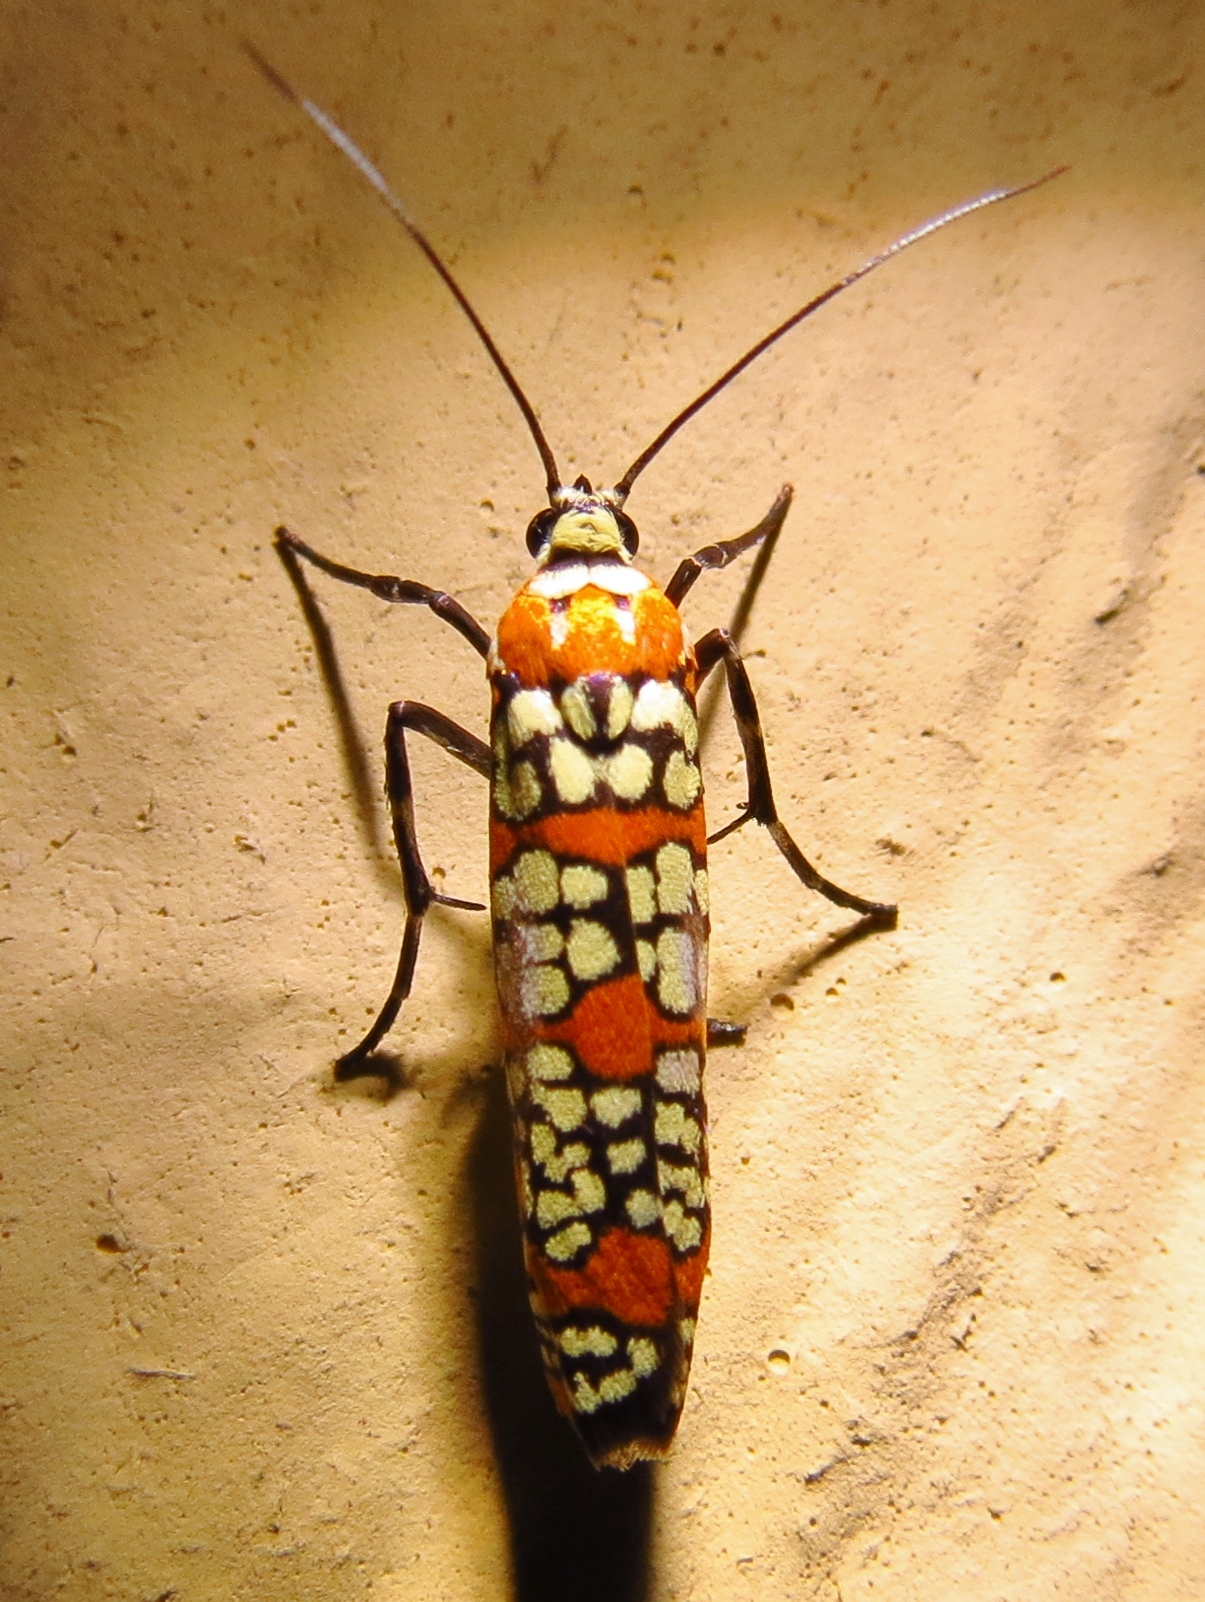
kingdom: Animalia
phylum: Arthropoda
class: Insecta
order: Lepidoptera
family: Attevidae
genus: Atteva
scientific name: Atteva punctella
